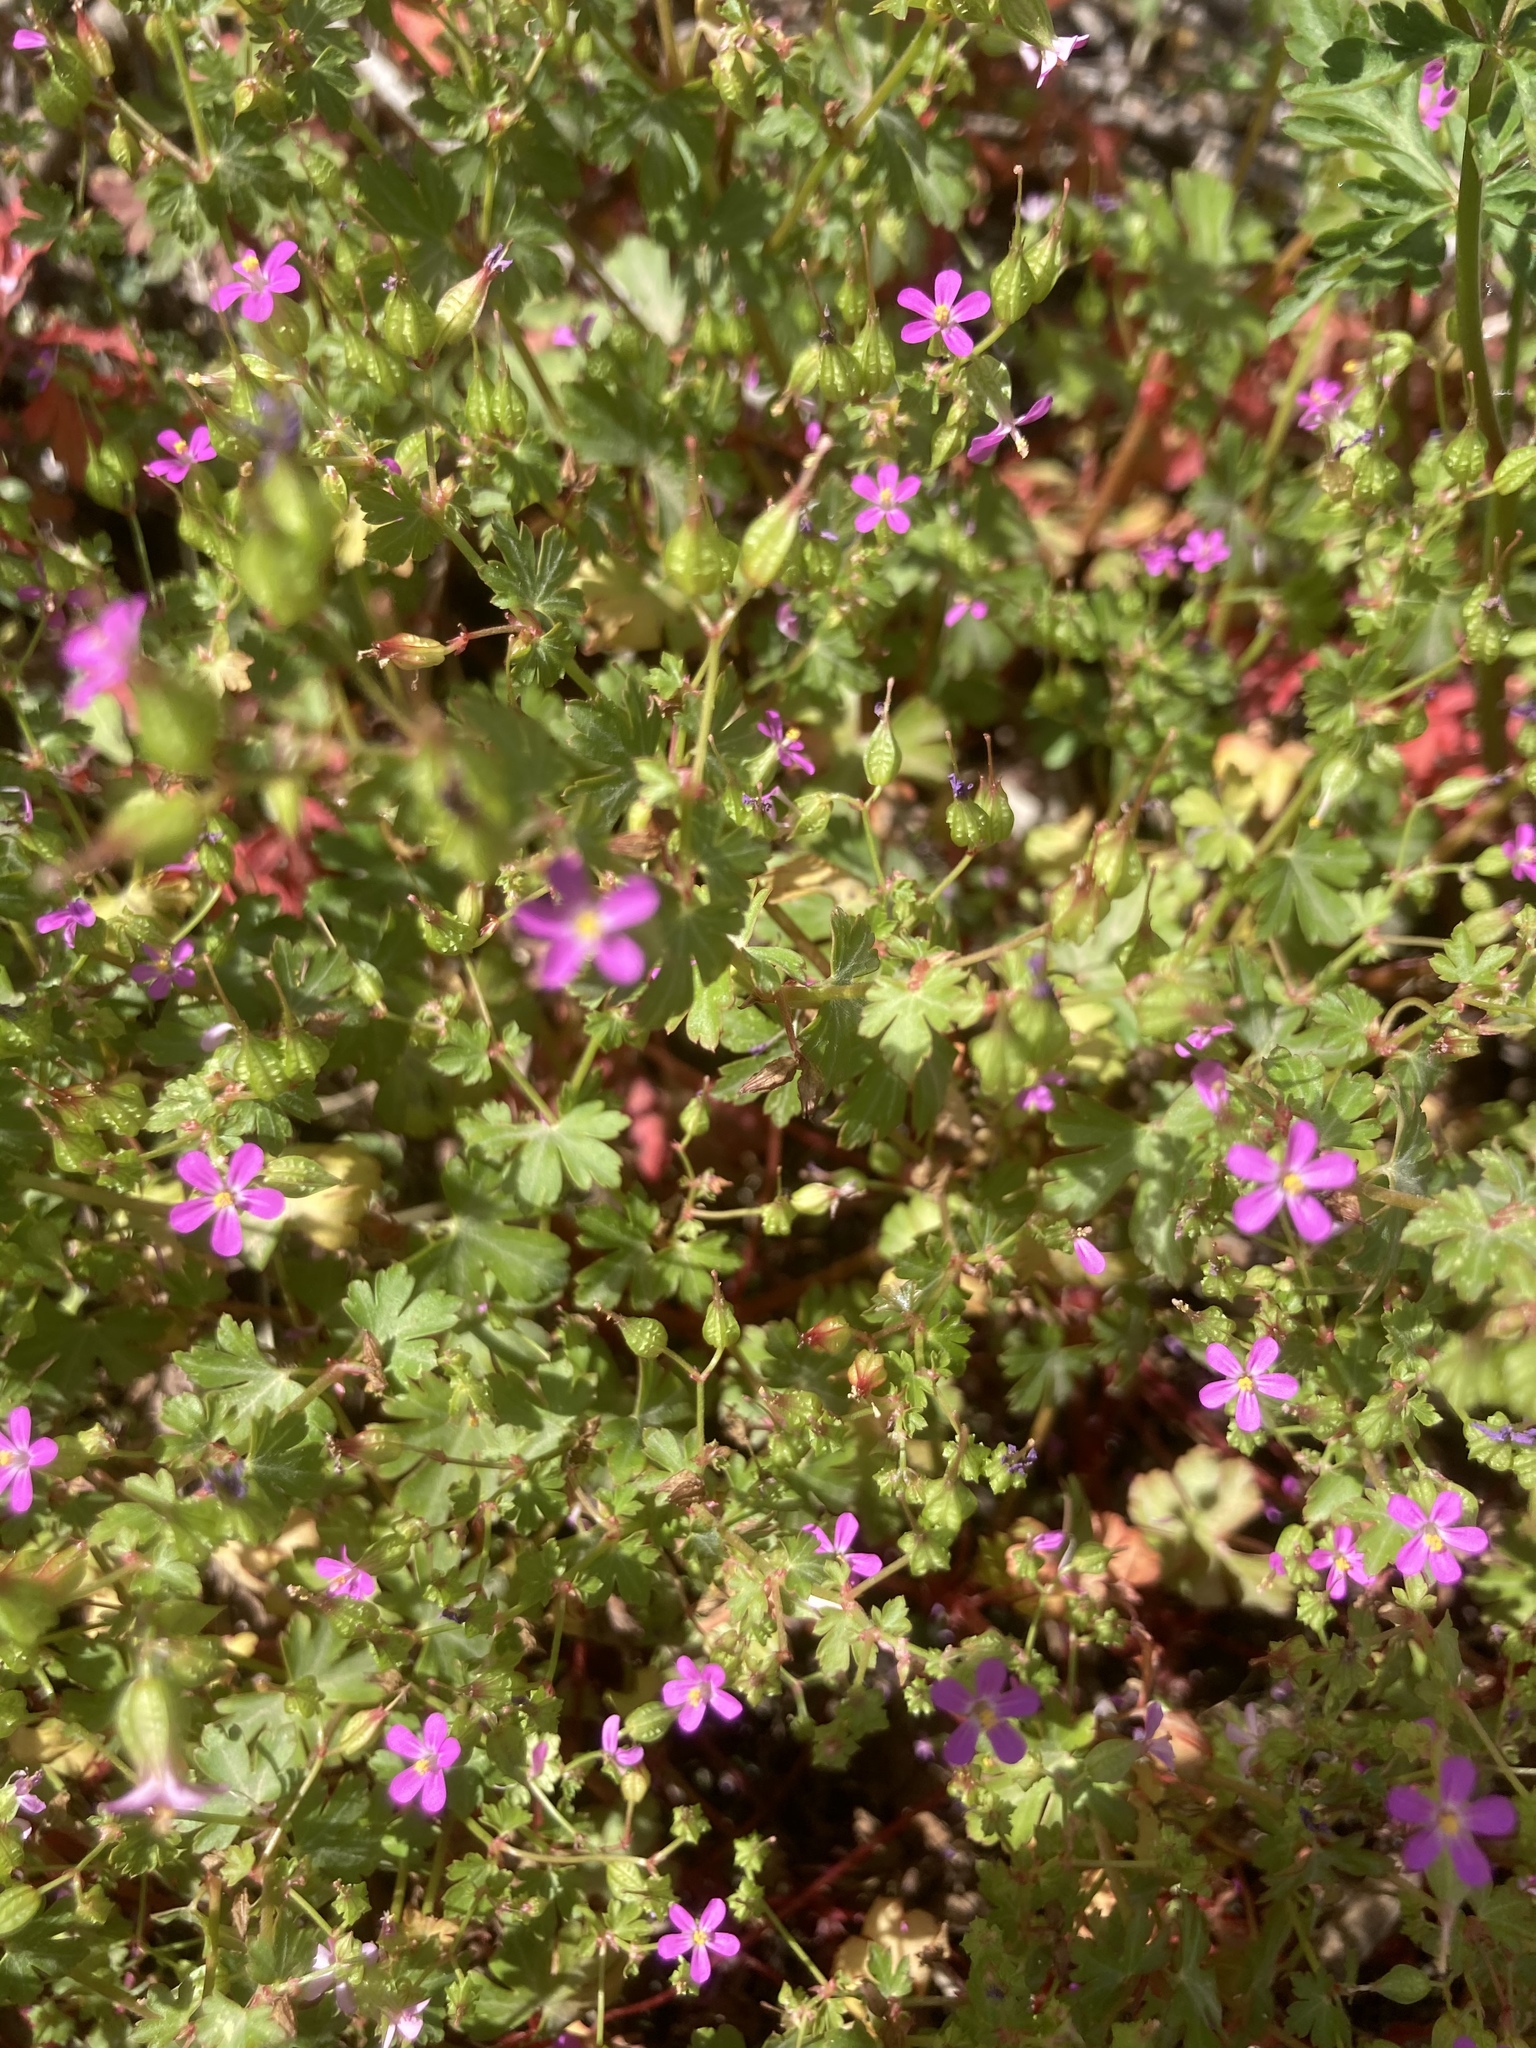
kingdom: Plantae
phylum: Tracheophyta
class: Magnoliopsida
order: Geraniales
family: Geraniaceae
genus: Geranium
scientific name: Geranium lucidum
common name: Shining crane's-bill
